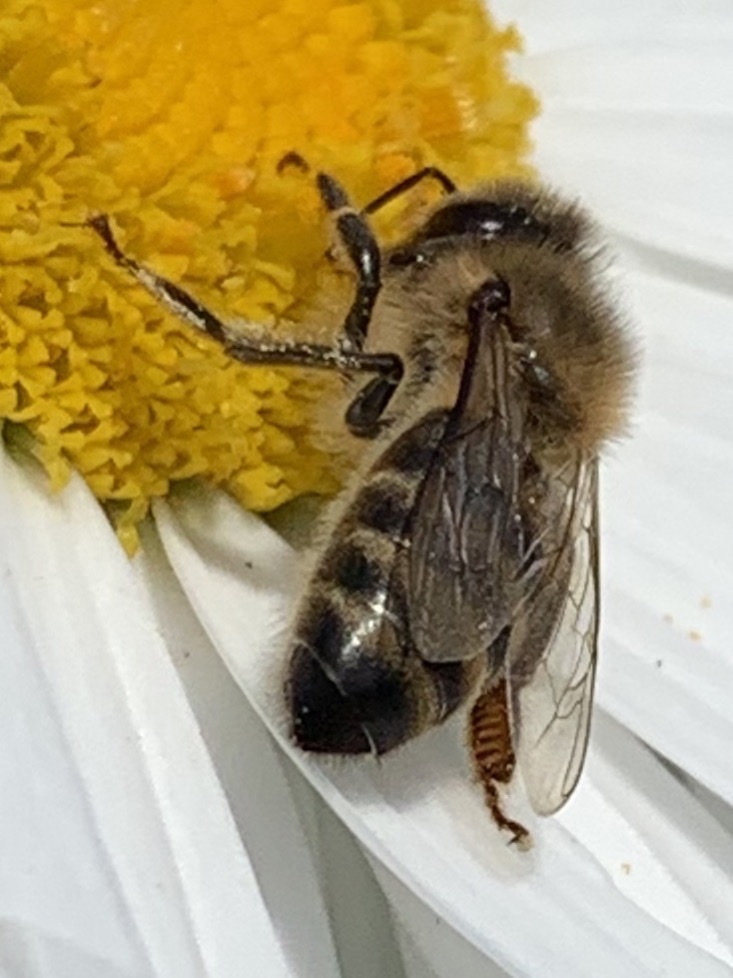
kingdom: Animalia
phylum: Arthropoda
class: Insecta
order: Hymenoptera
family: Apidae
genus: Apis
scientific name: Apis mellifera
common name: Honey bee
